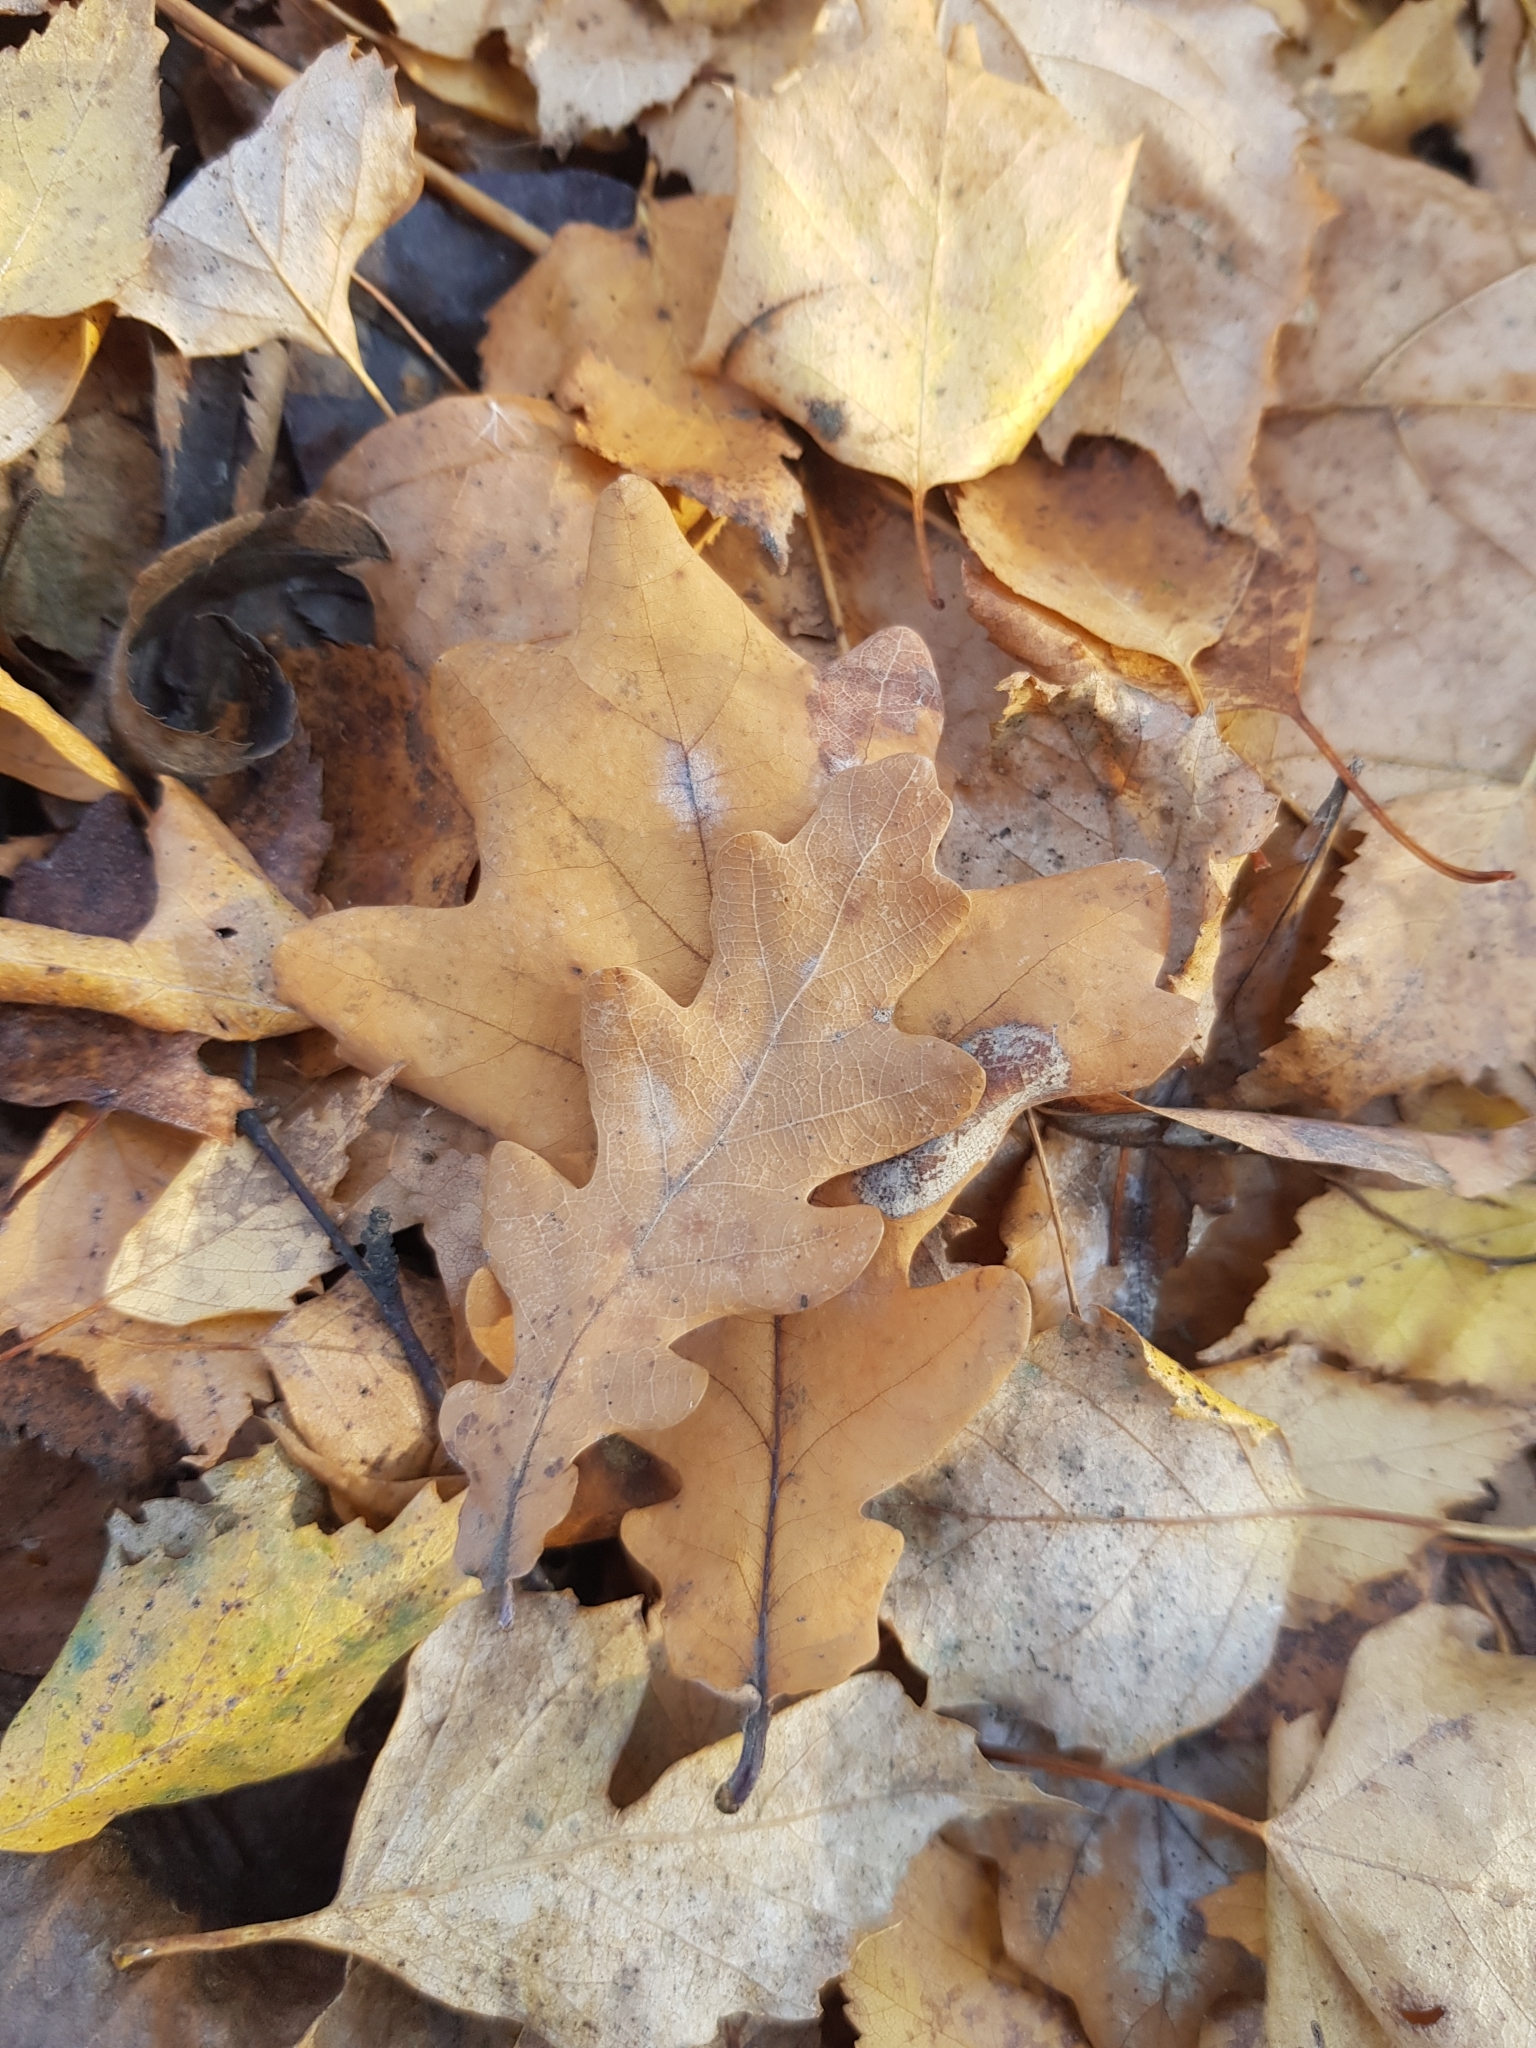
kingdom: Plantae
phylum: Tracheophyta
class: Magnoliopsida
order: Fagales
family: Fagaceae
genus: Quercus
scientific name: Quercus robur
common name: Pedunculate oak
